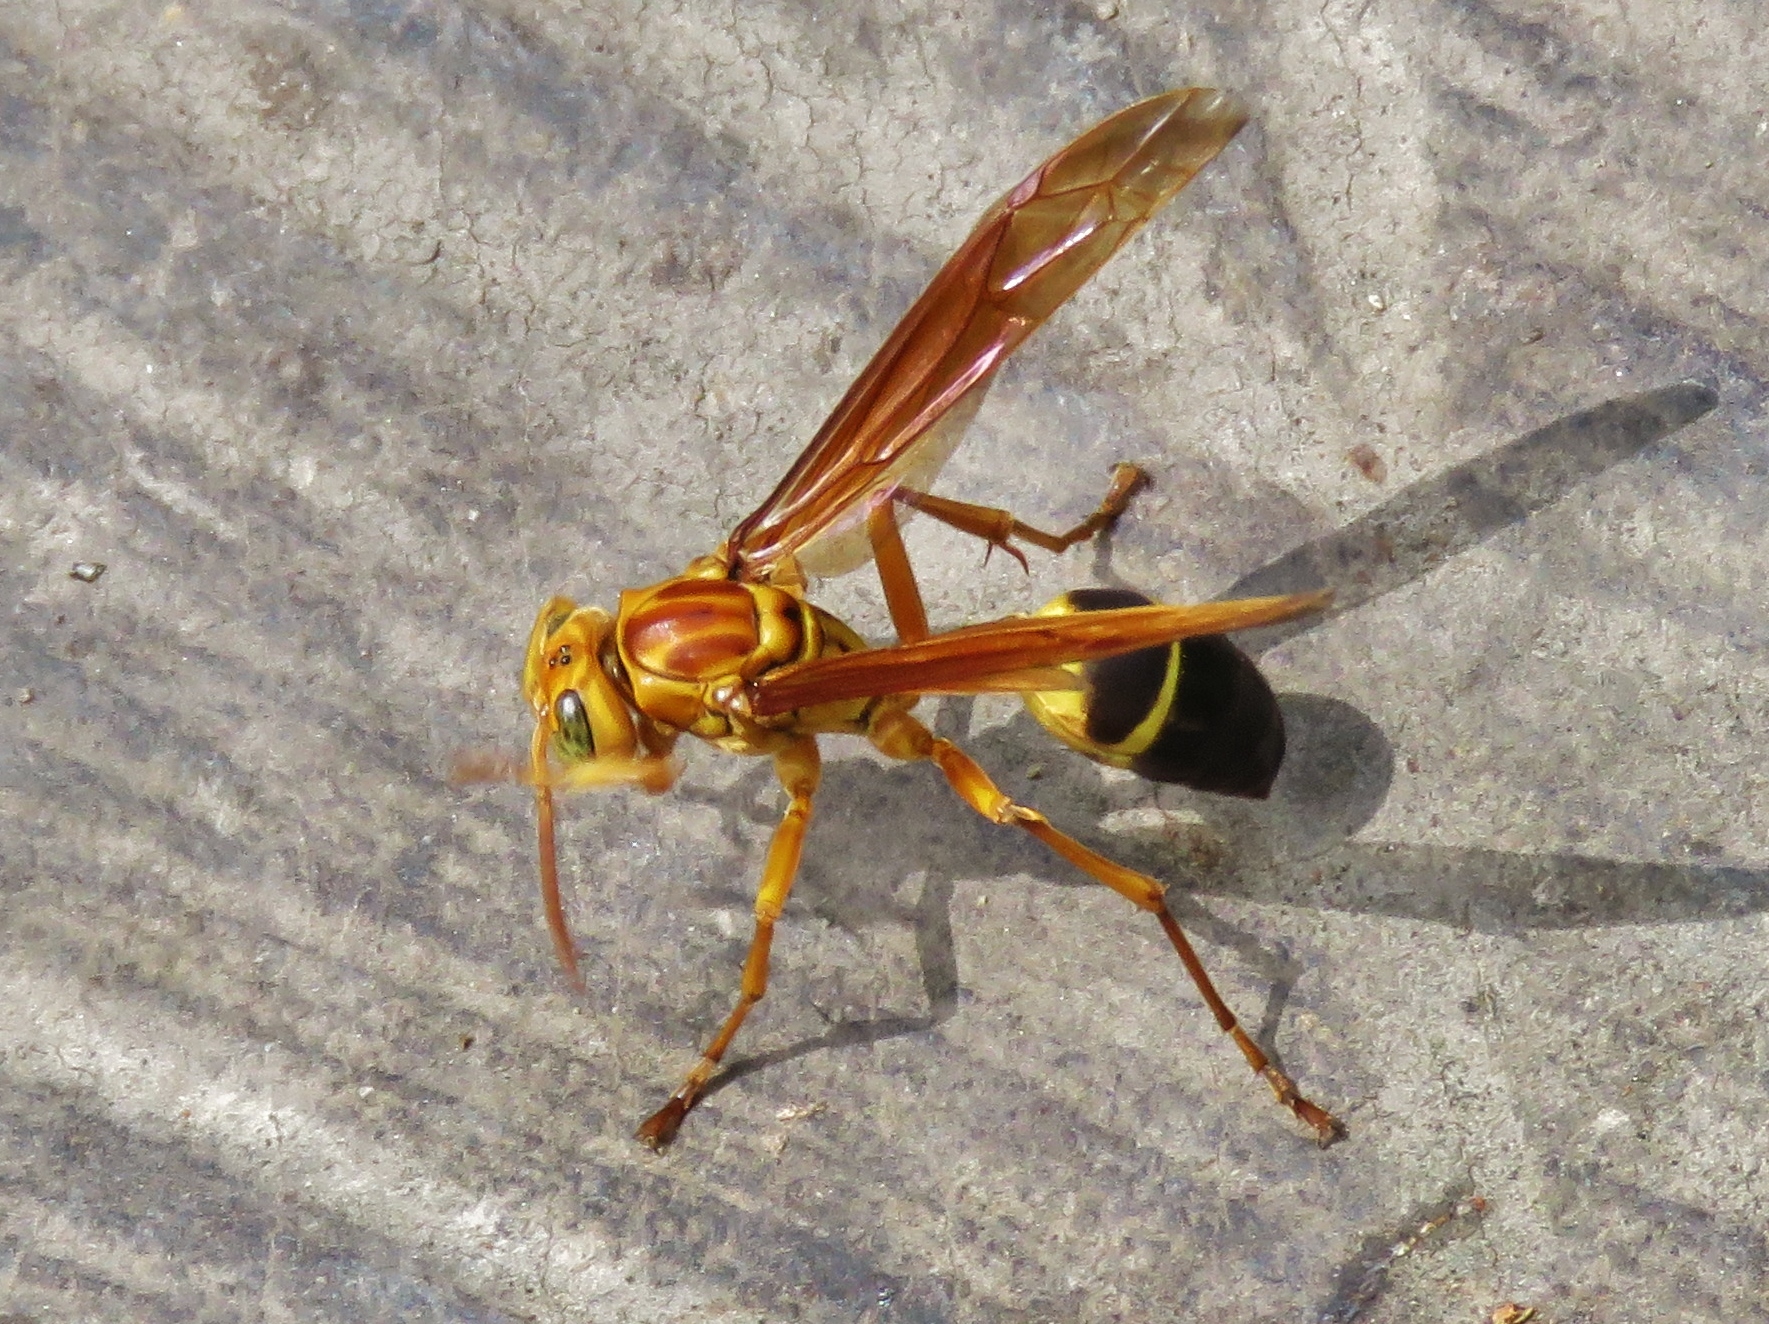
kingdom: Animalia
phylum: Arthropoda
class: Insecta
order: Hymenoptera
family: Vespidae
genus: Agelaia
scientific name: Agelaia constructor
